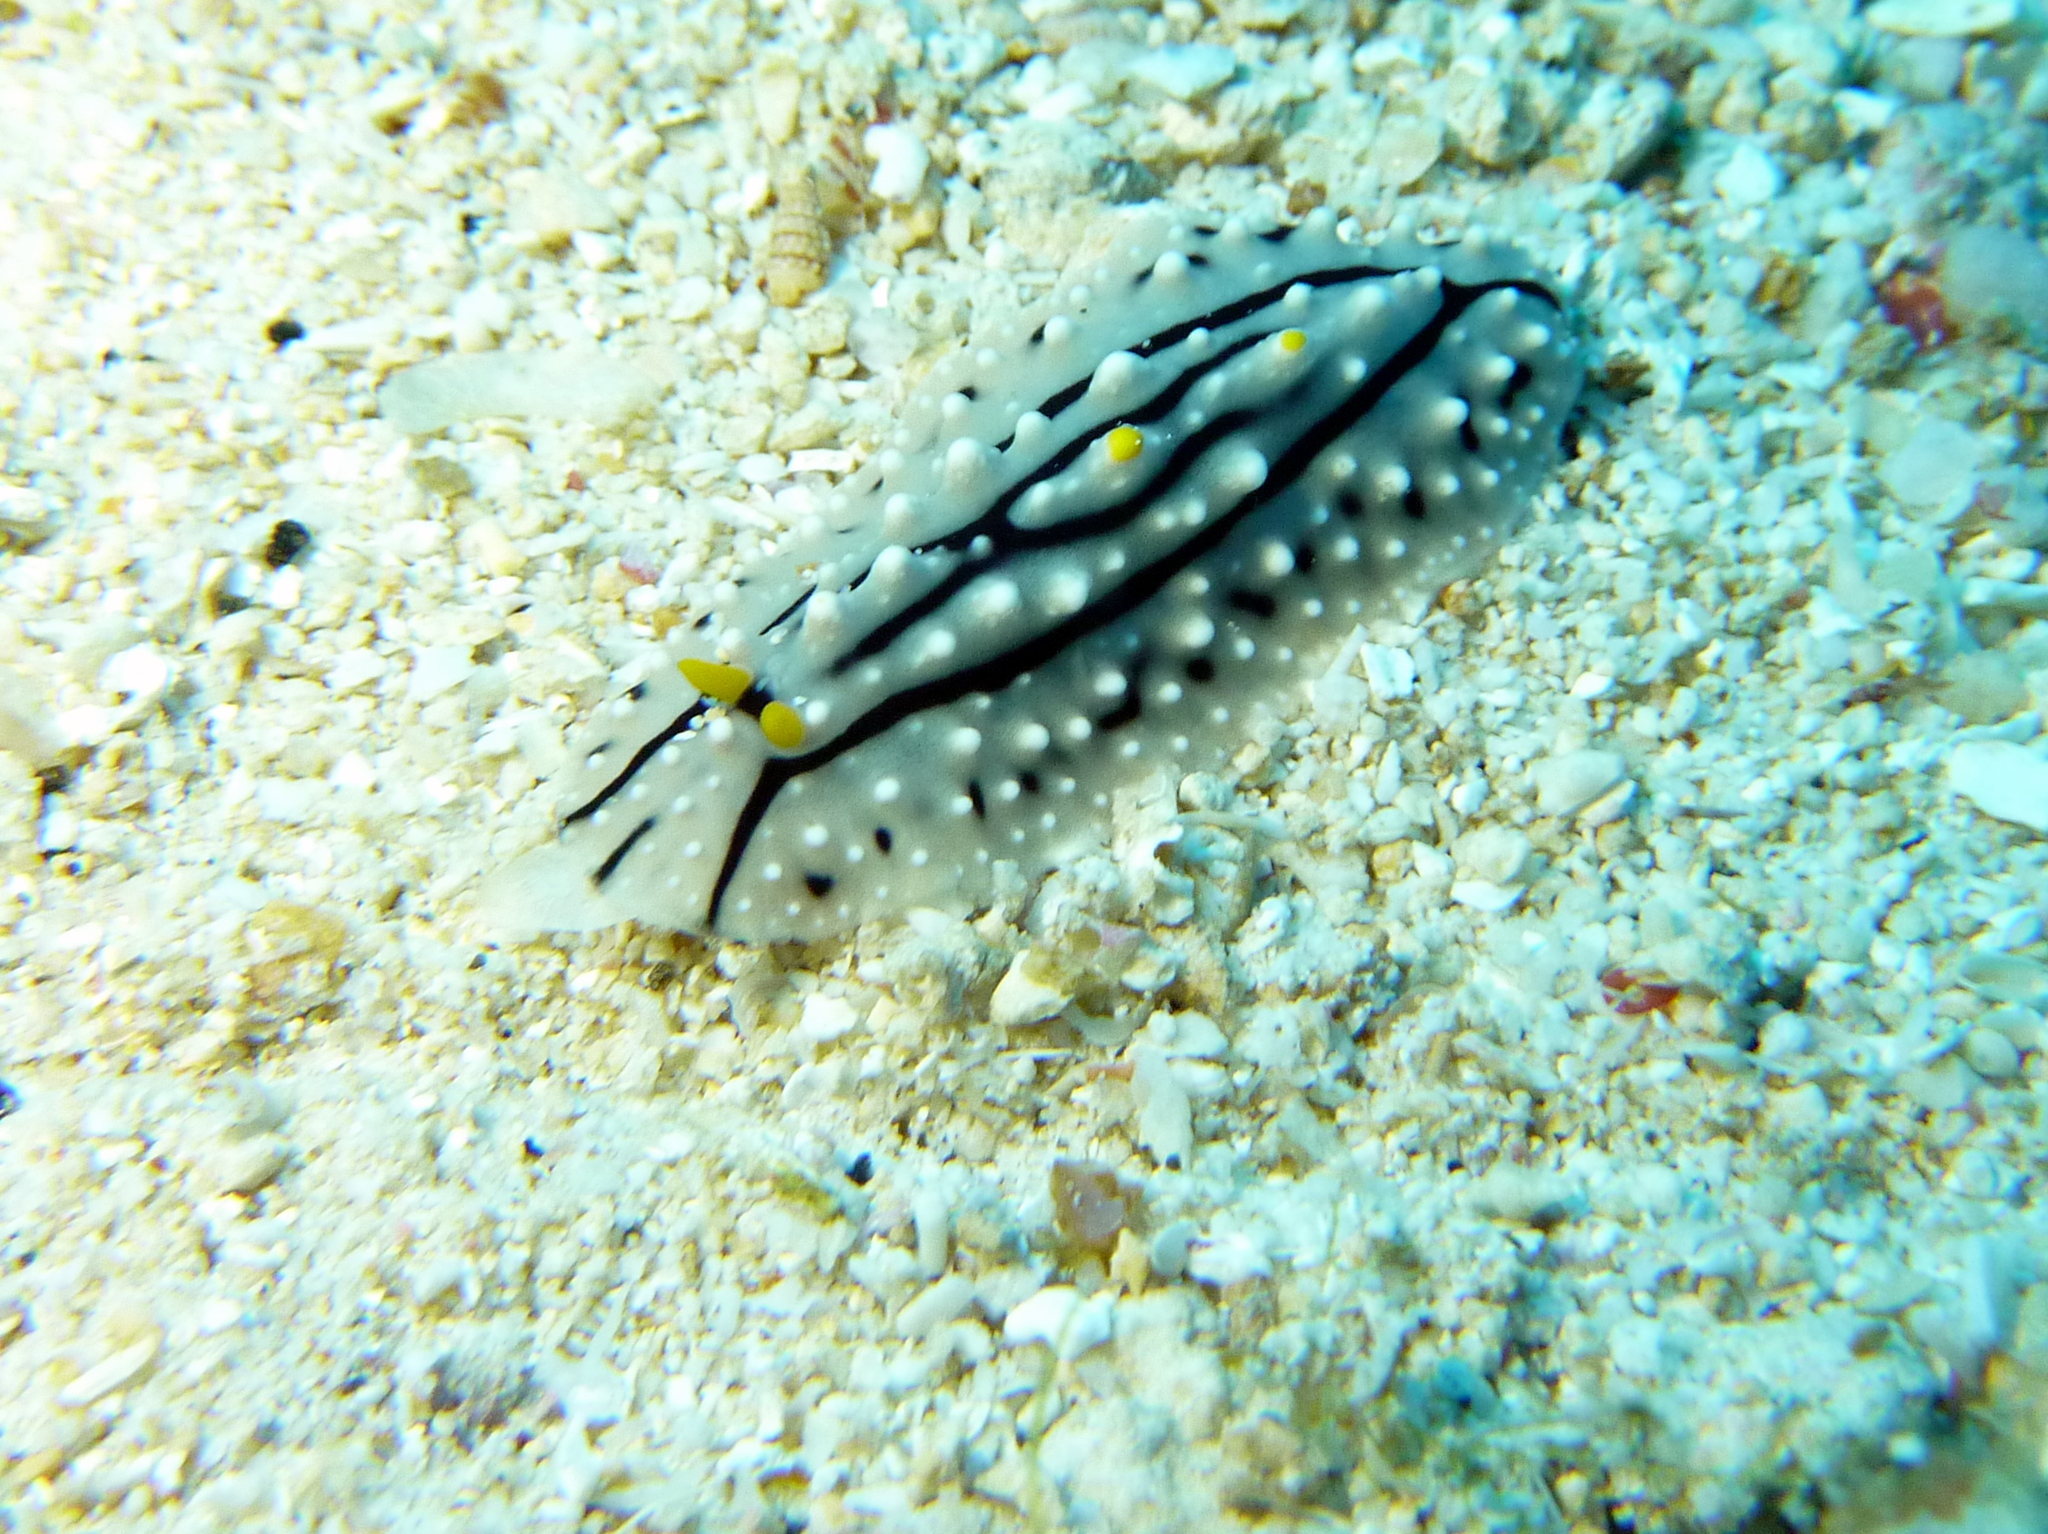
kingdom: Animalia
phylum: Mollusca
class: Gastropoda
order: Nudibranchia
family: Phyllidiidae
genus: Phyllidia
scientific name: Phyllidia elegans
